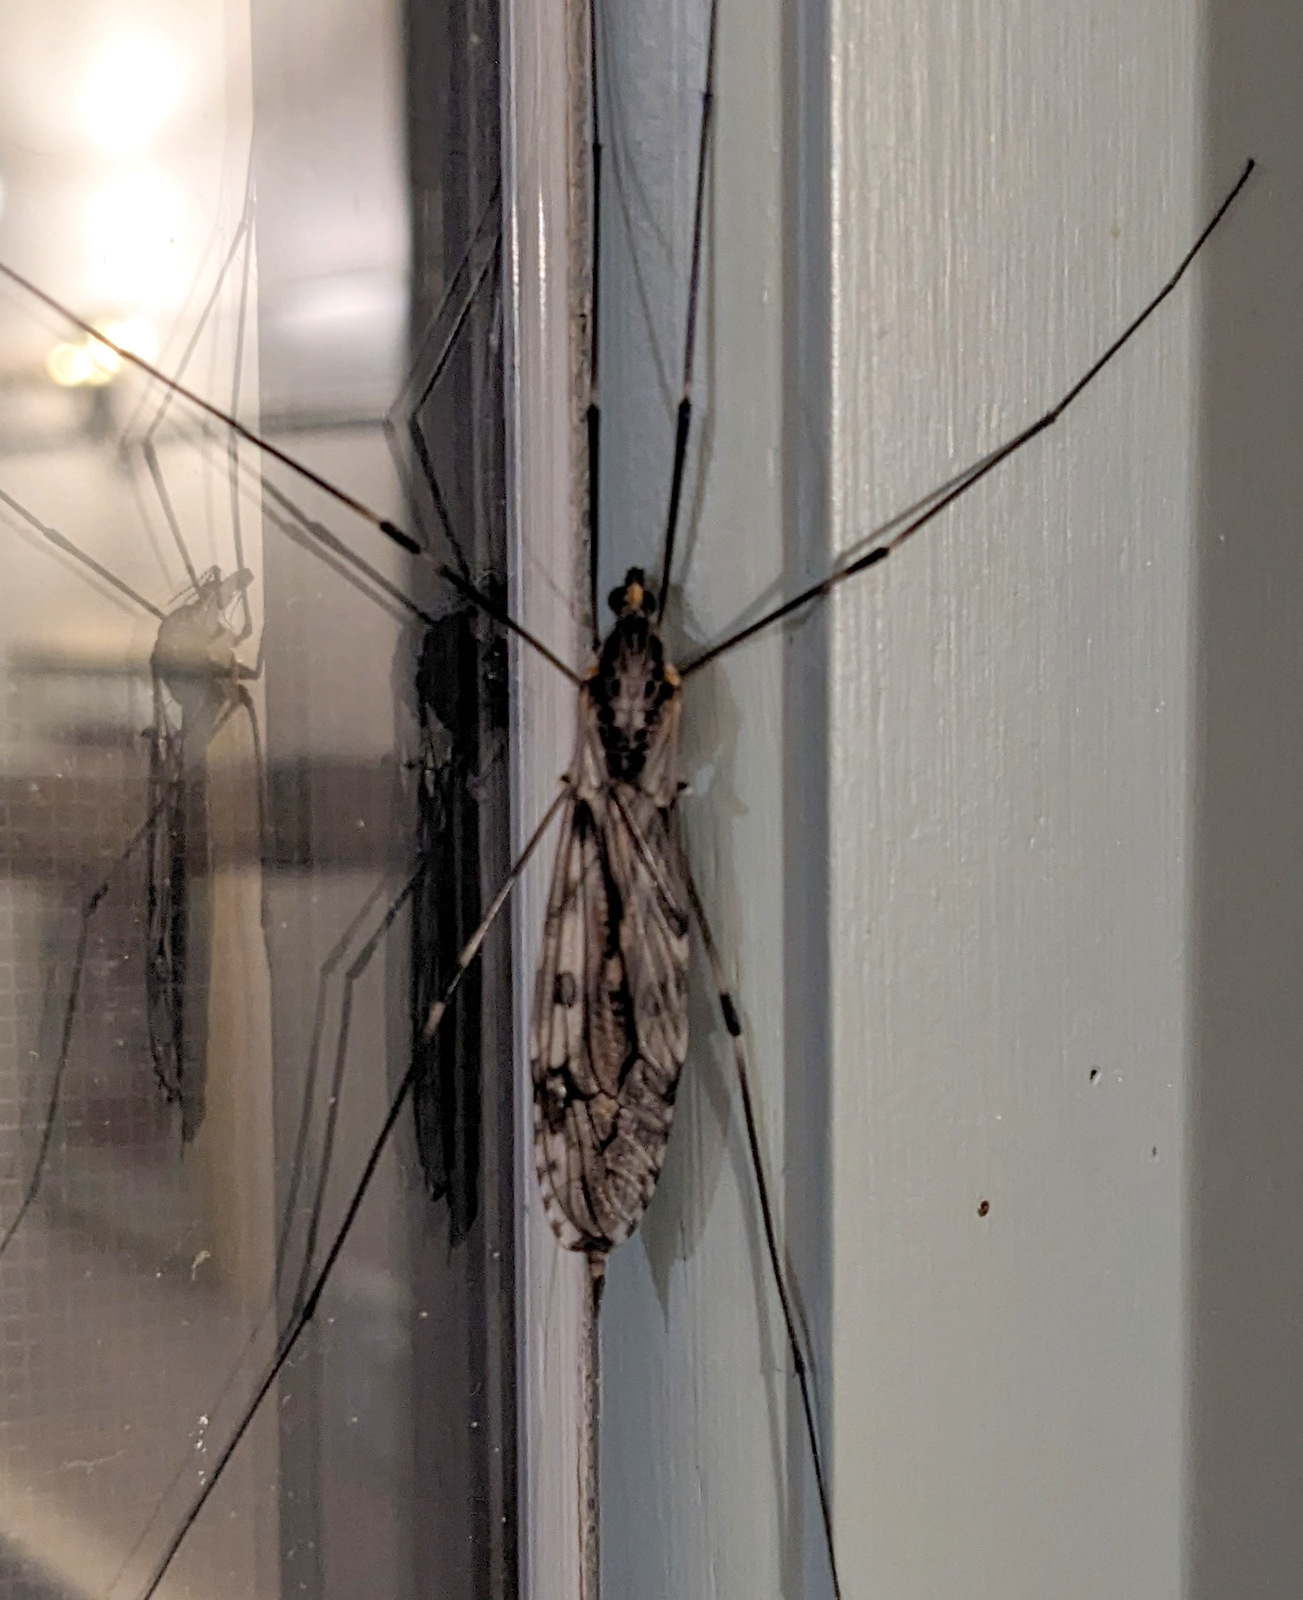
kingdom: Animalia
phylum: Arthropoda
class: Insecta
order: Diptera
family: Tipulidae
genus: Tipula
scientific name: Tipula abdominalis
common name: Giant crane fly
